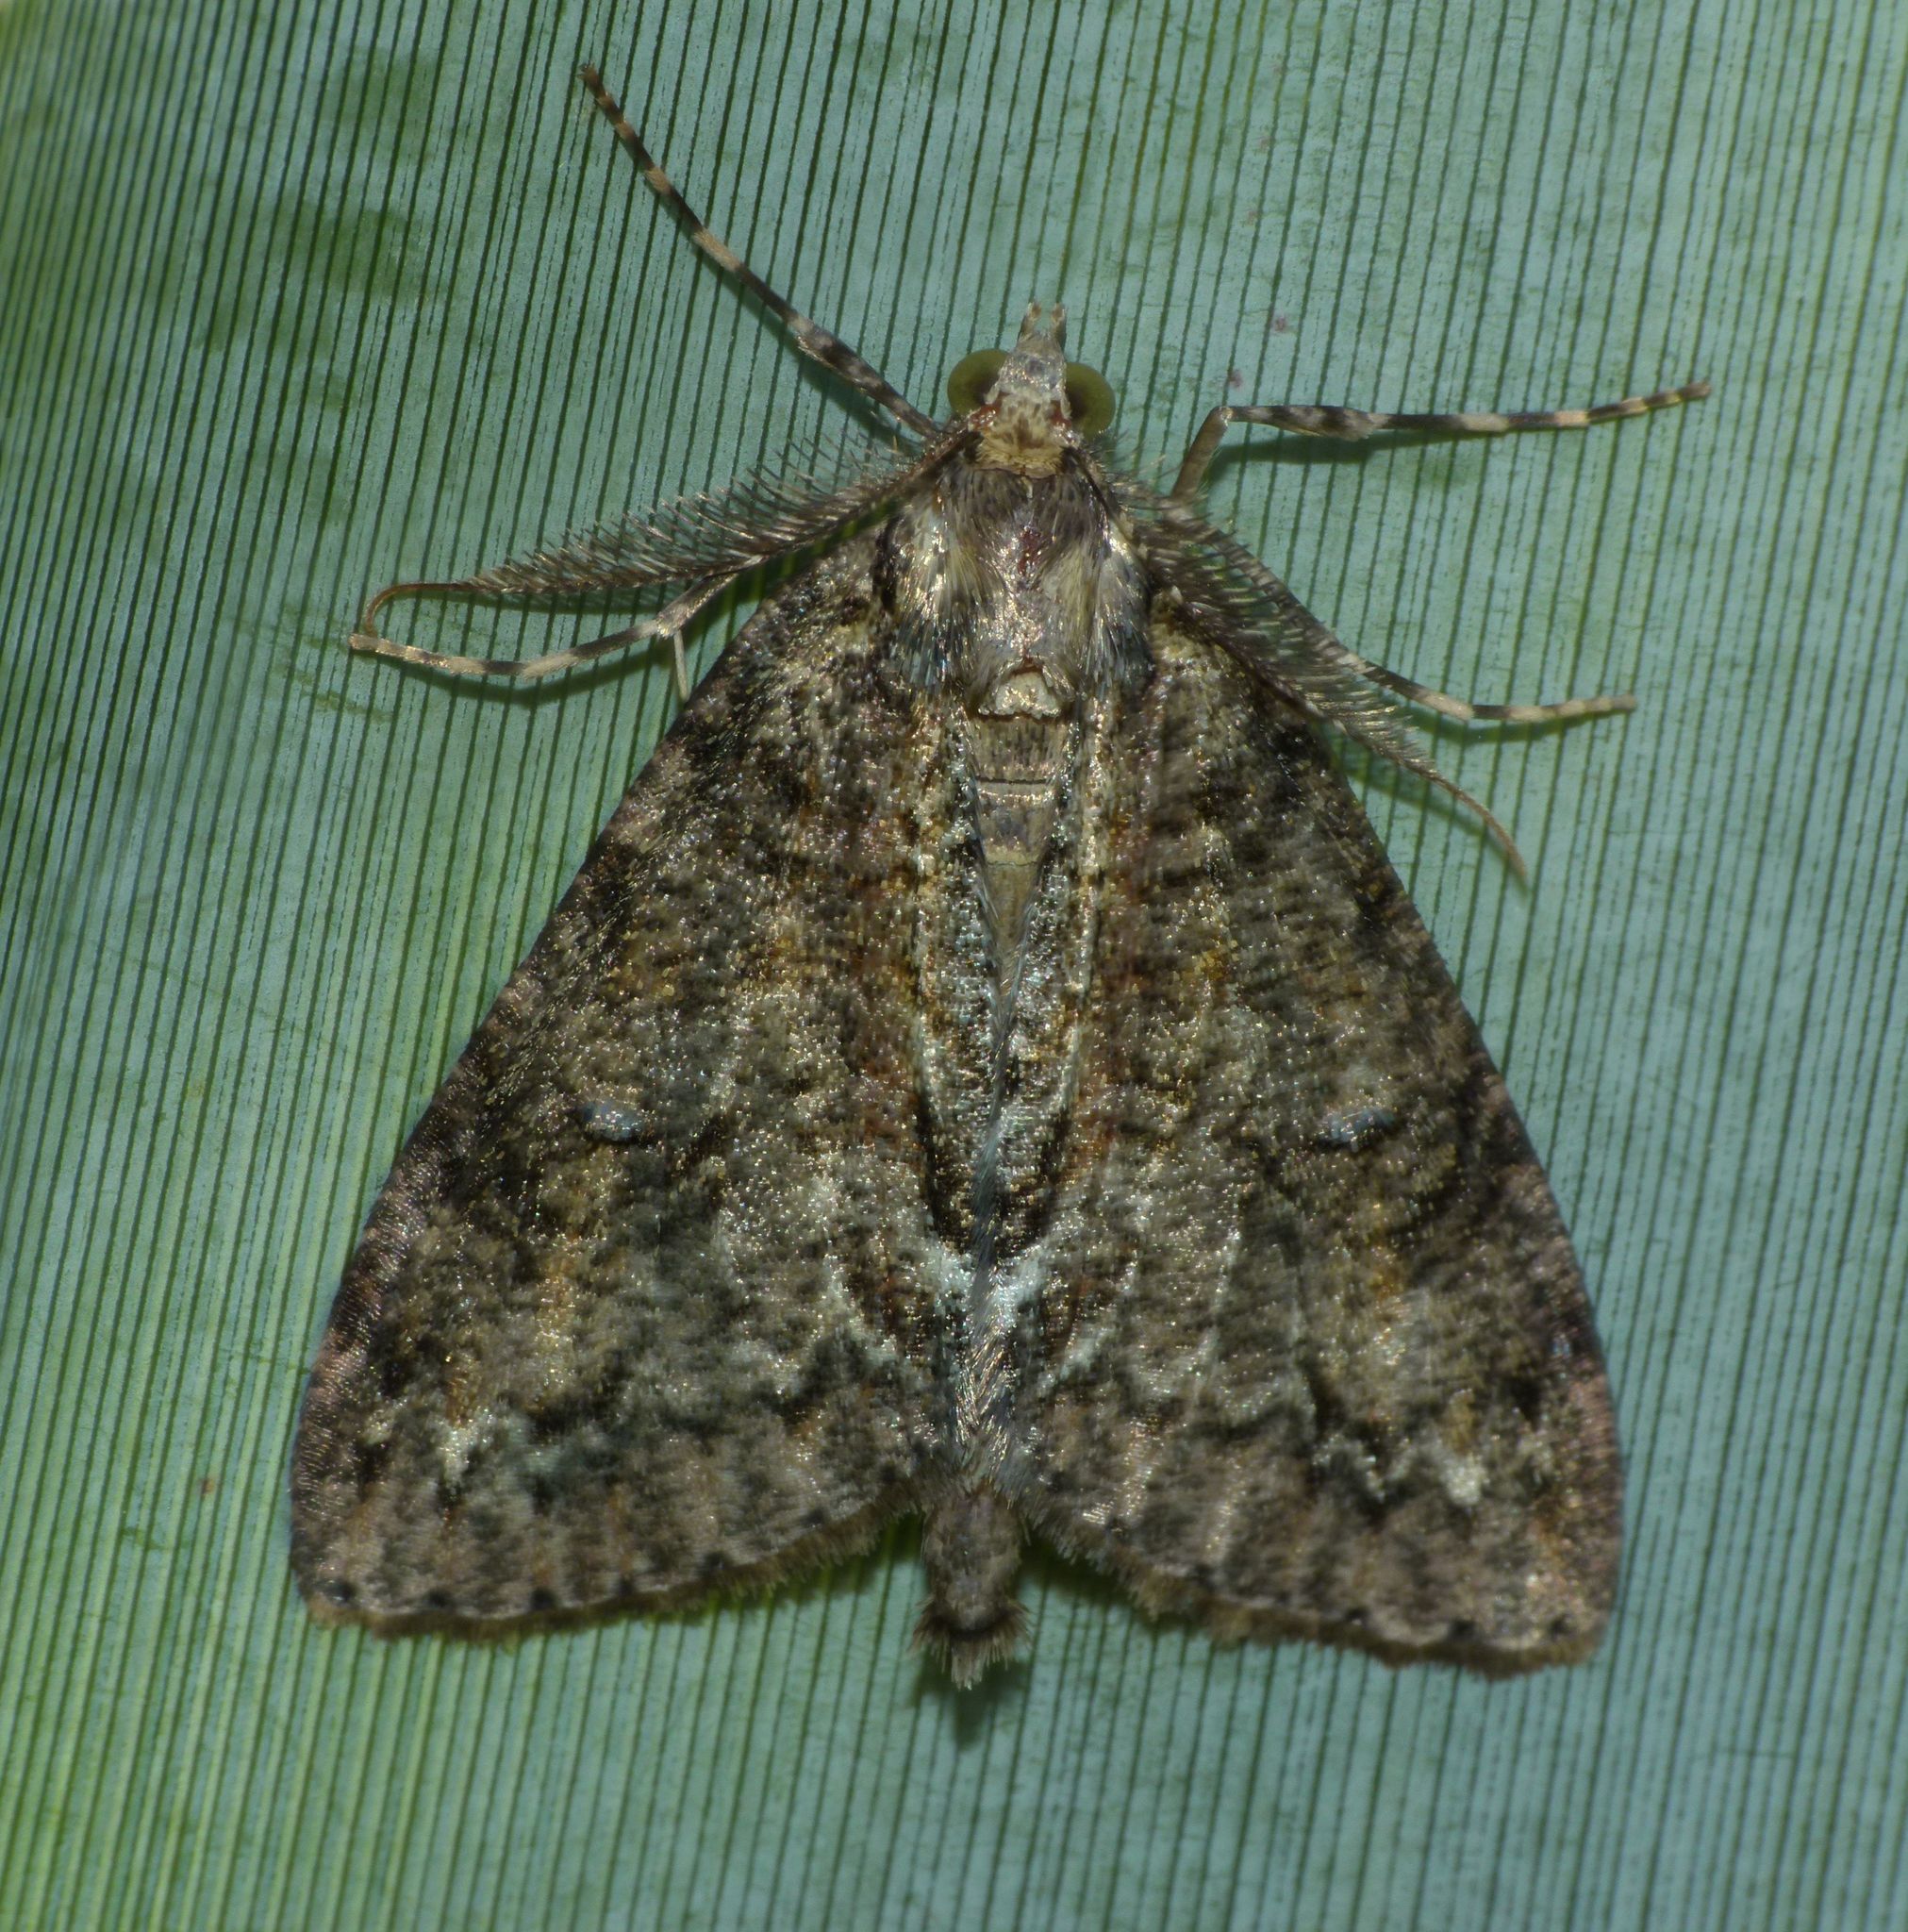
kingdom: Animalia
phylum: Arthropoda
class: Insecta
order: Lepidoptera
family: Geometridae
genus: Pseudocoremia
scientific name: Pseudocoremia suavis
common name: Common forest looper
